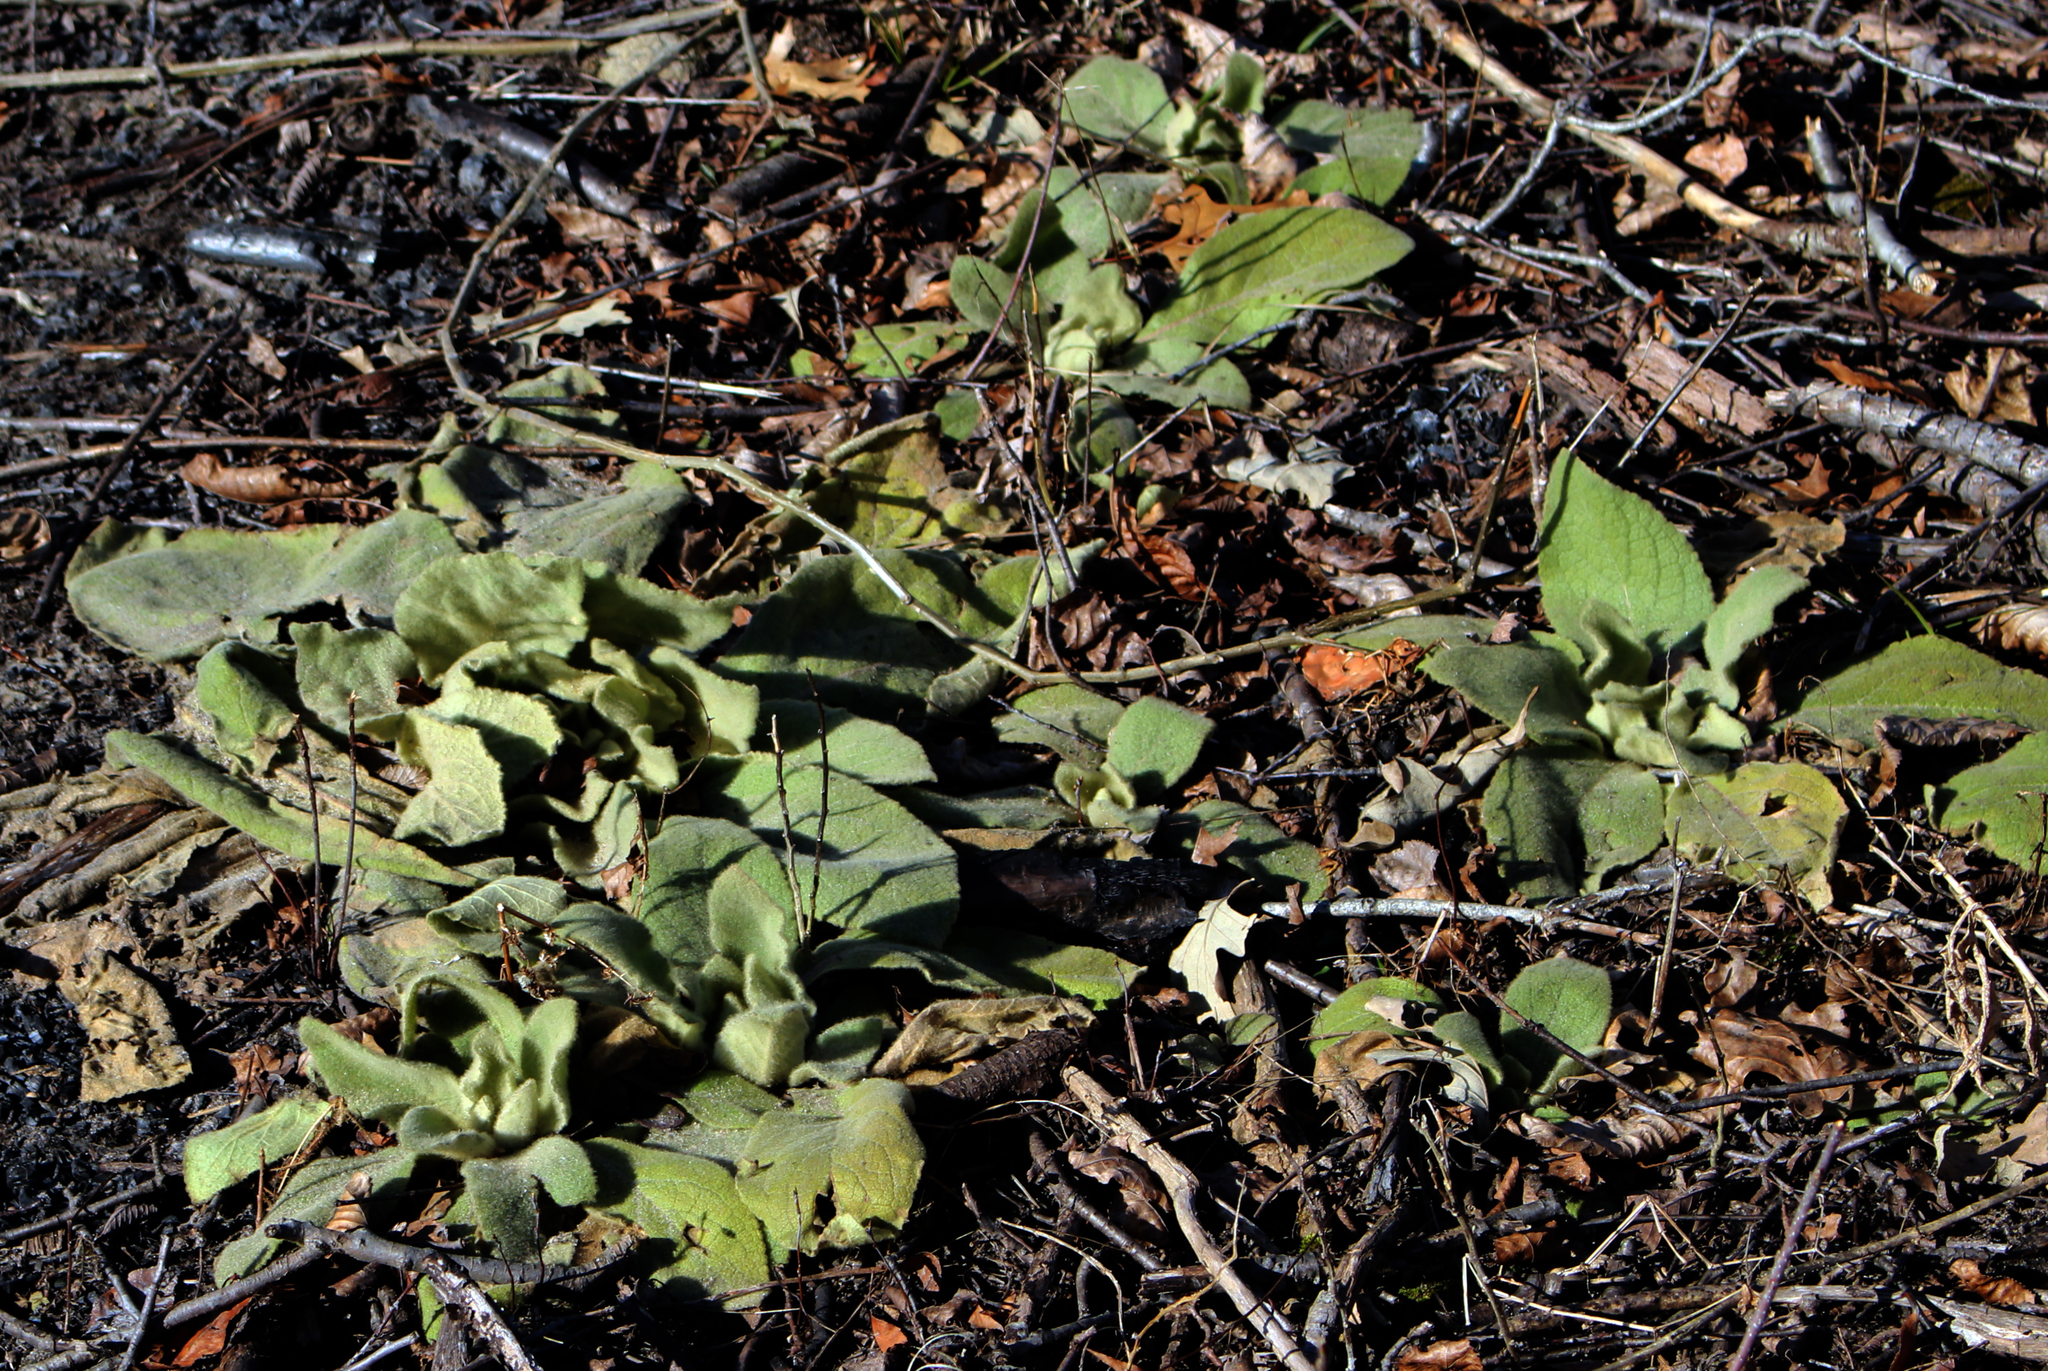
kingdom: Plantae
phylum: Tracheophyta
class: Magnoliopsida
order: Lamiales
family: Scrophulariaceae
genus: Verbascum
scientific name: Verbascum thapsus
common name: Common mullein
